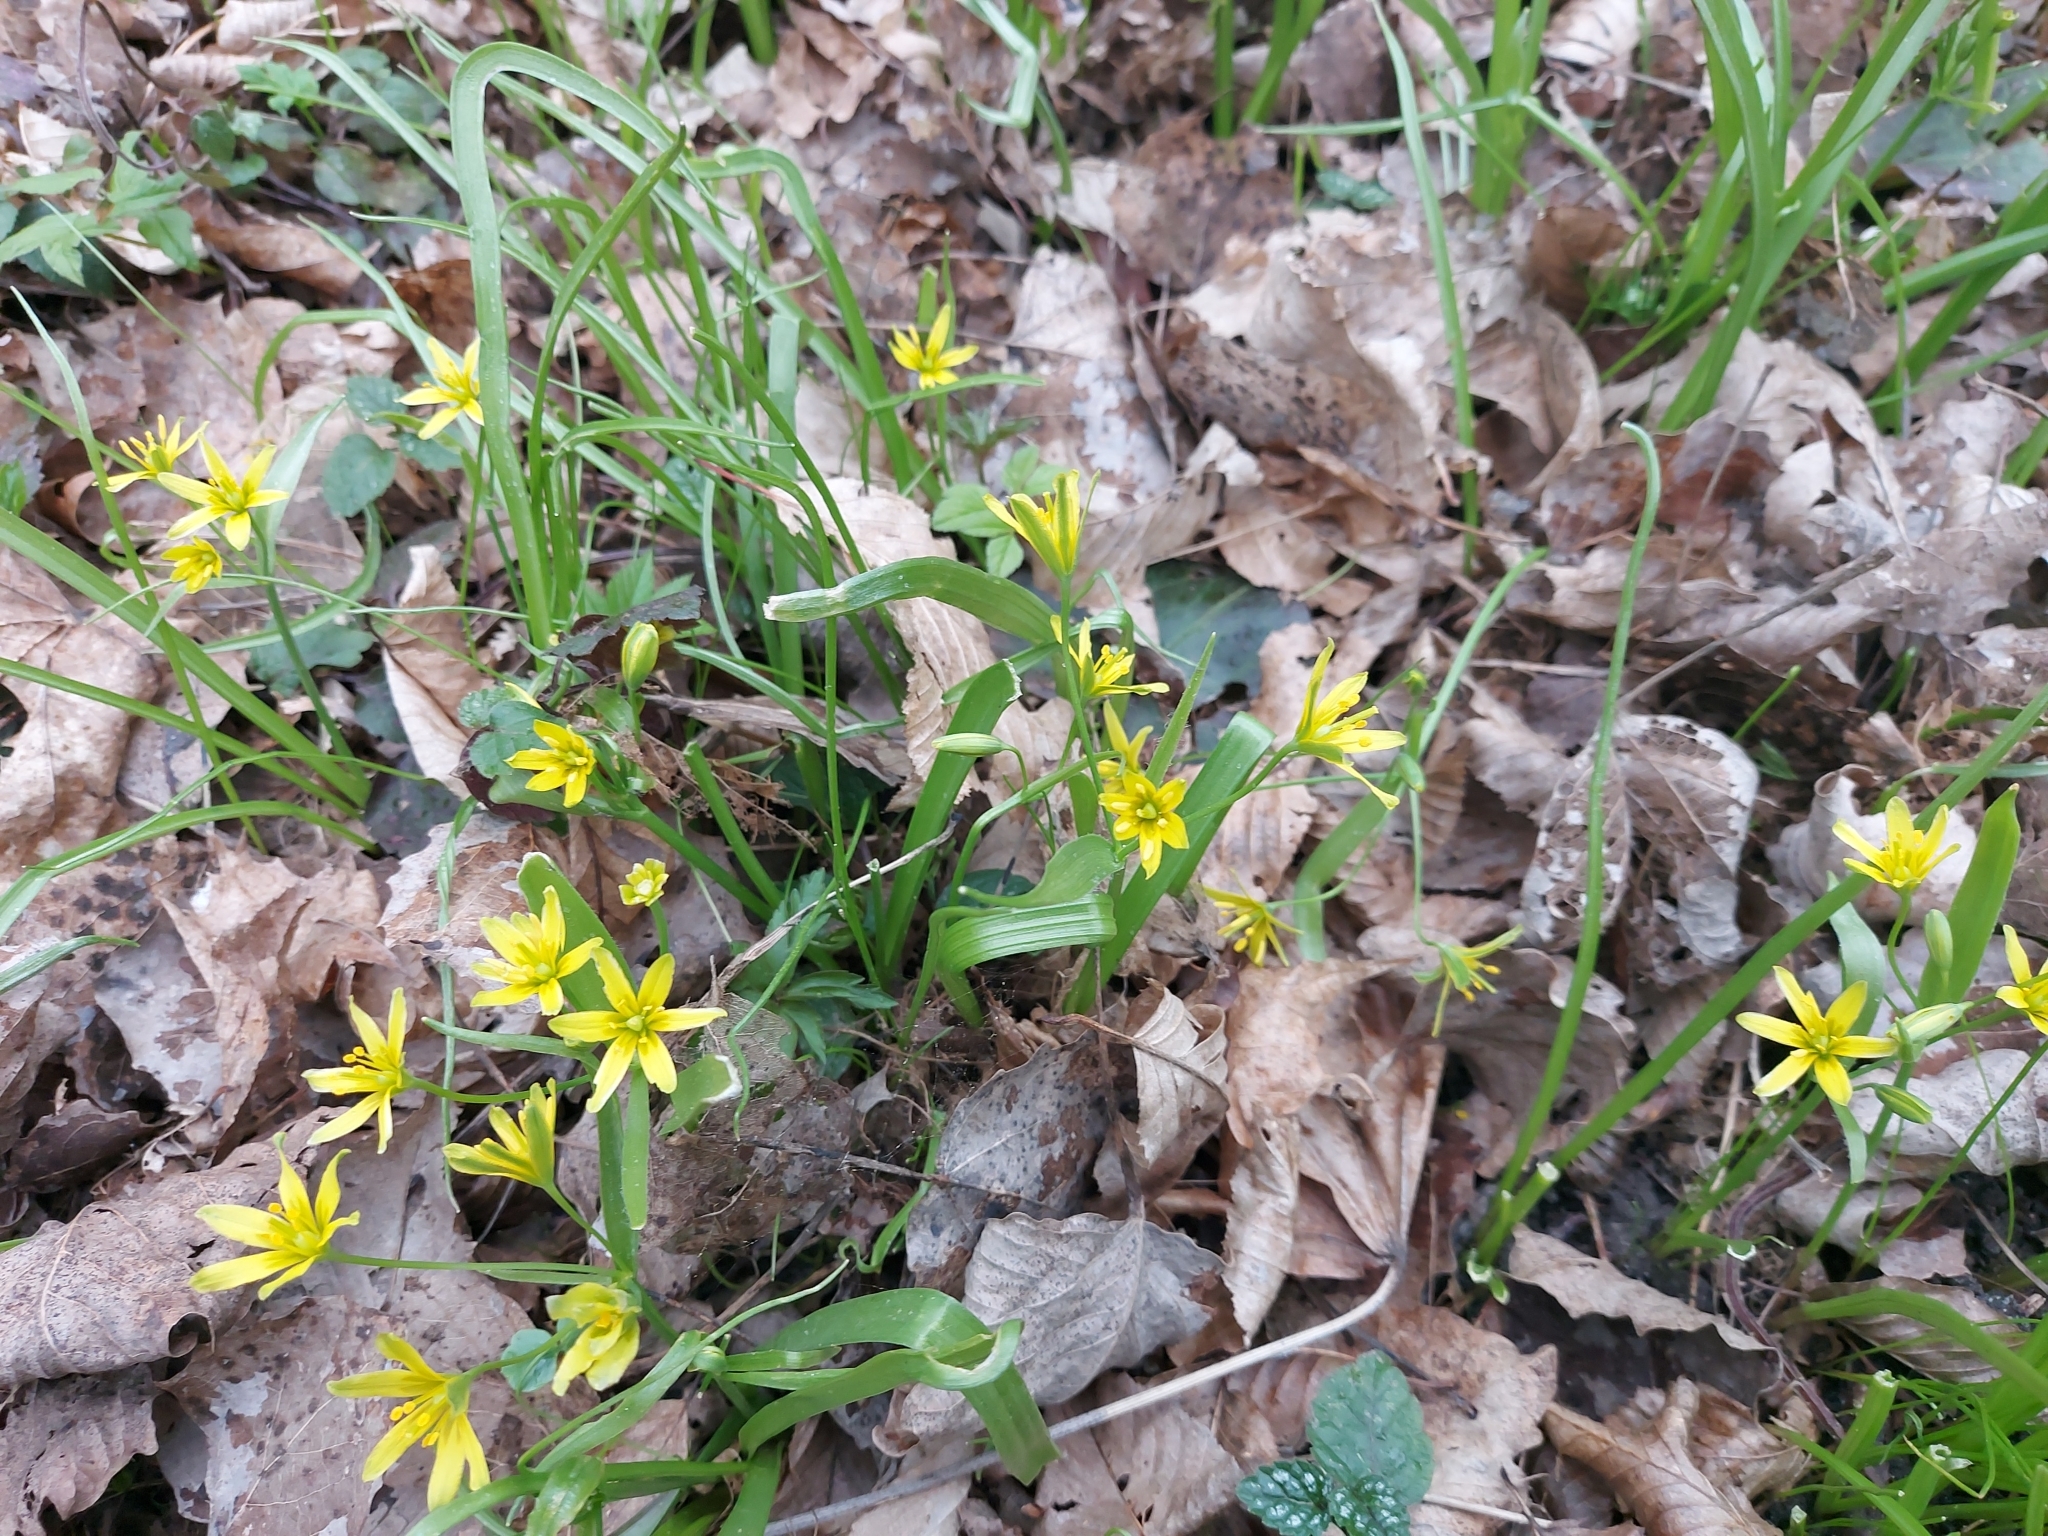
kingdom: Plantae
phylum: Tracheophyta
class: Liliopsida
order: Liliales
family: Liliaceae
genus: Gagea
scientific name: Gagea lutea
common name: Yellow star-of-bethlehem
